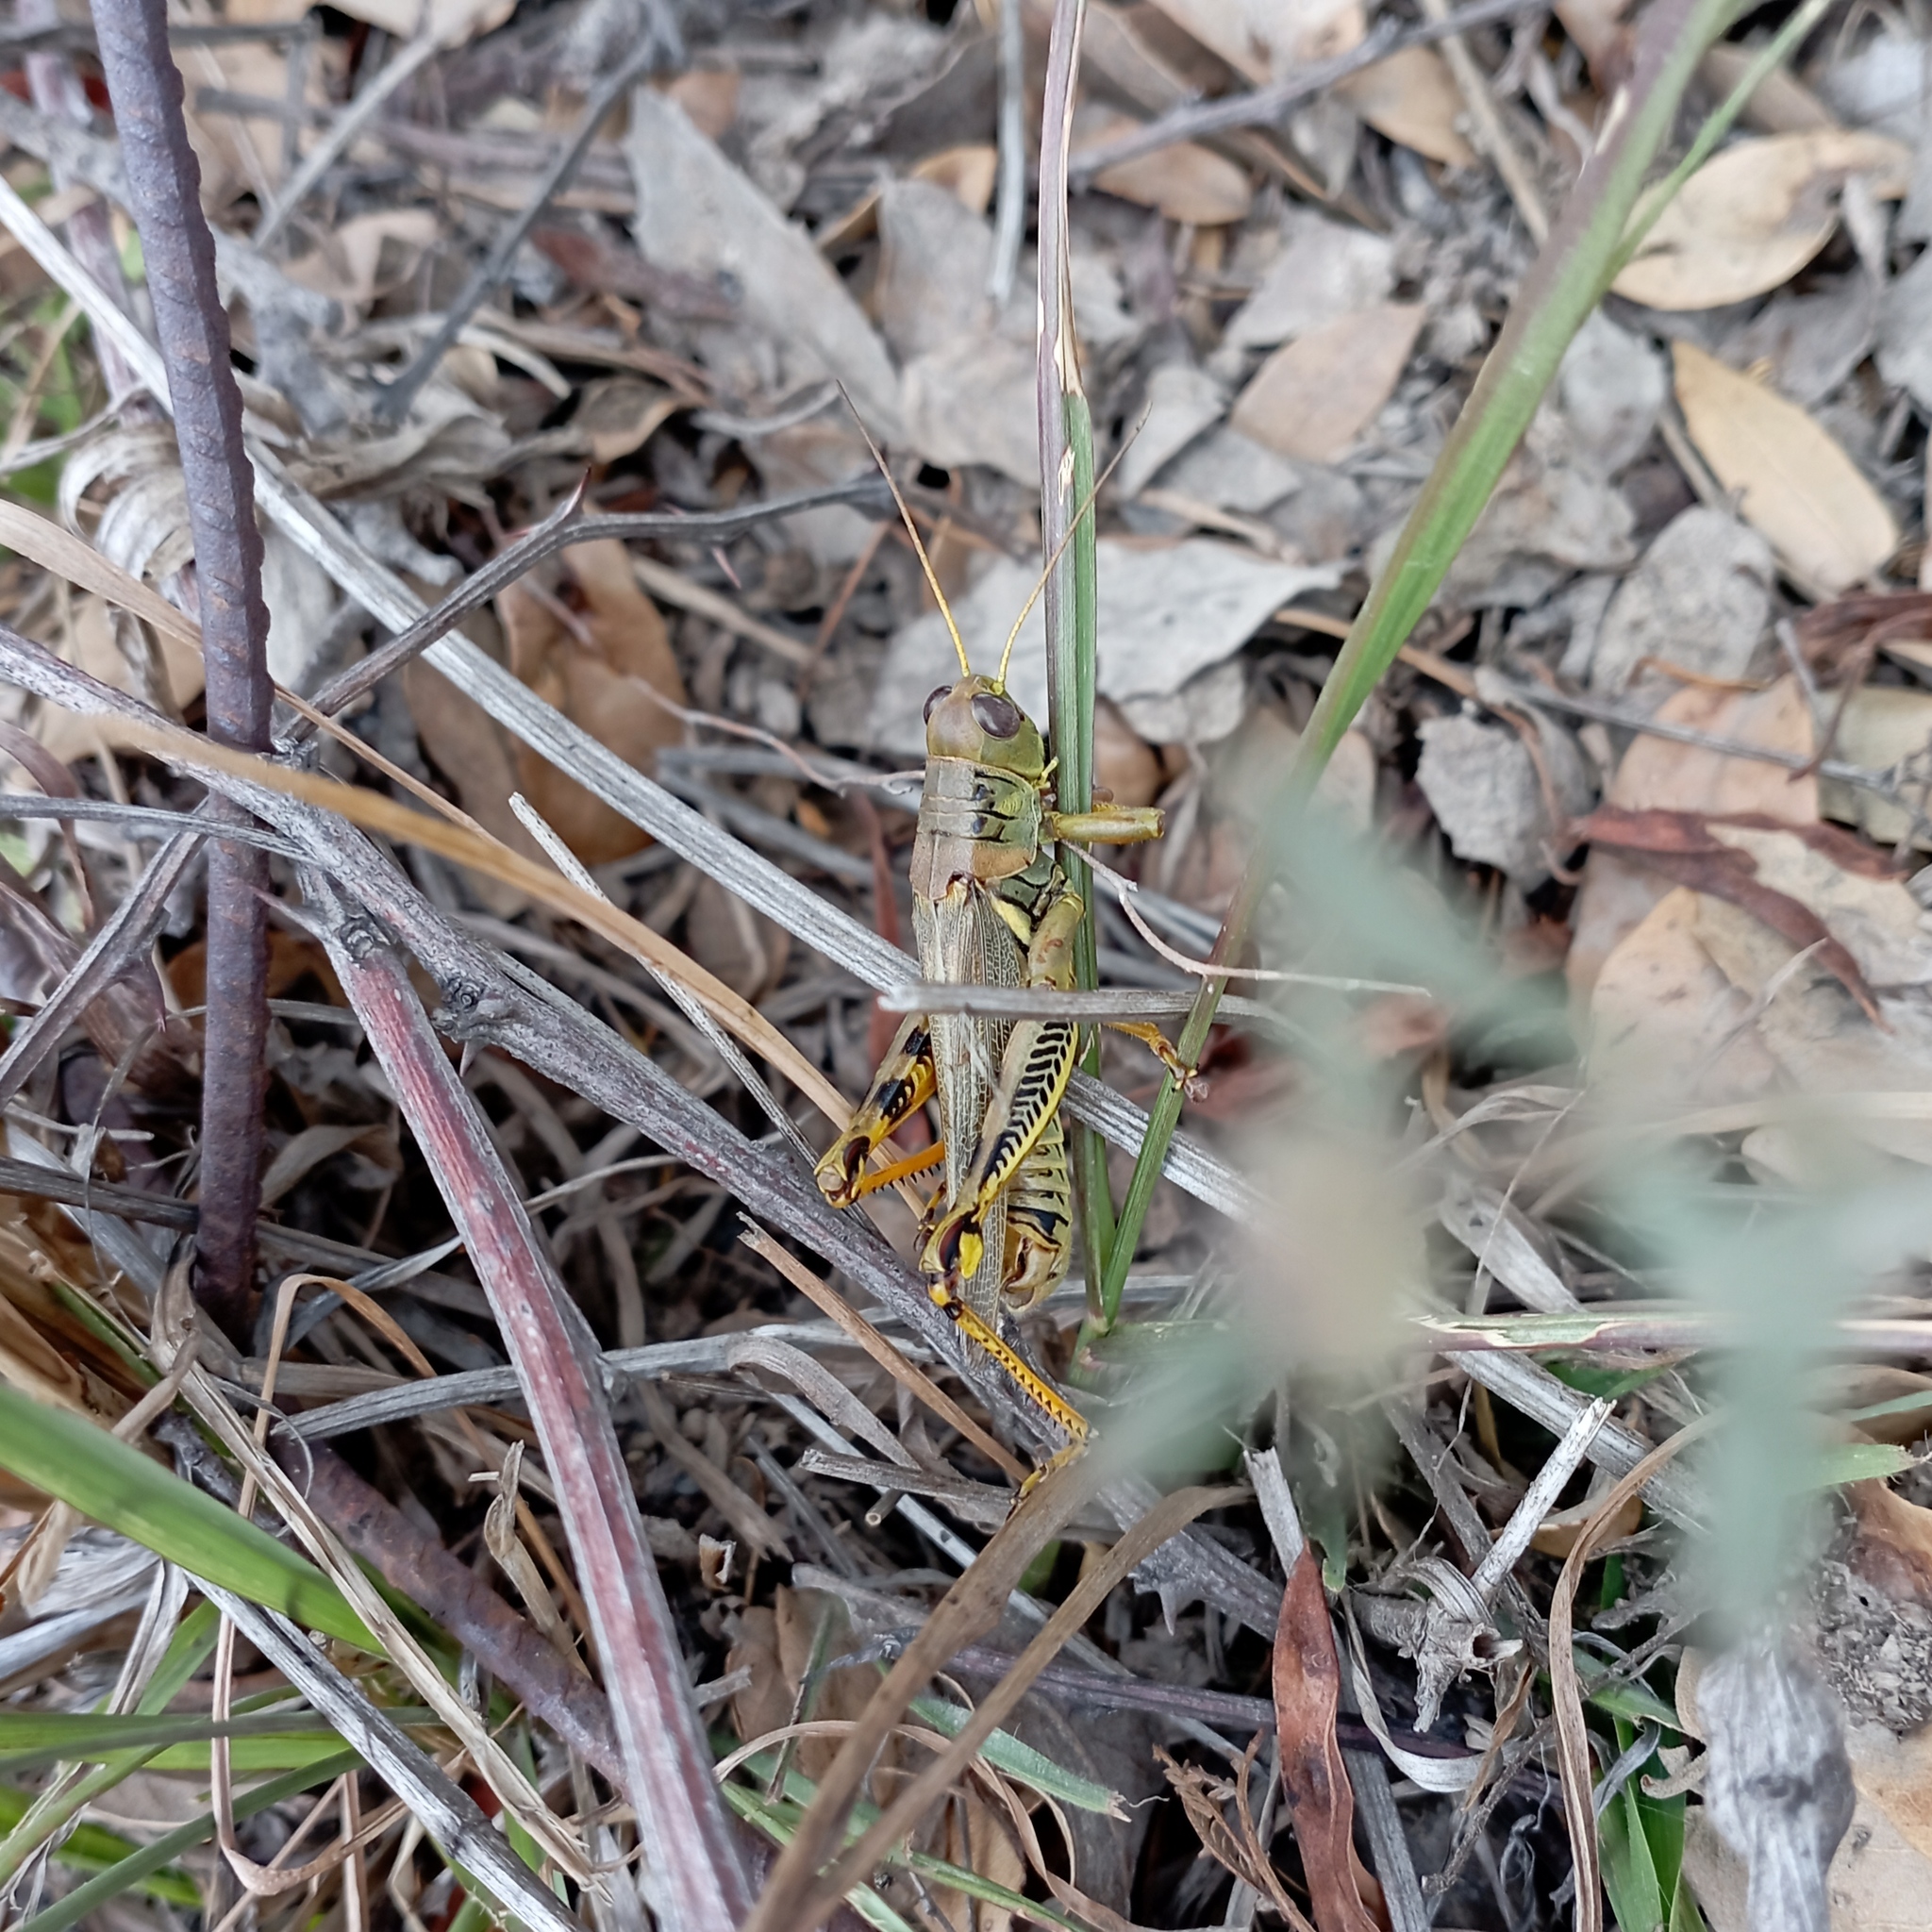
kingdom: Animalia
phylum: Arthropoda
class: Insecta
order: Orthoptera
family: Acrididae
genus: Melanoplus
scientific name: Melanoplus differentialis
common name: Differential grasshopper
